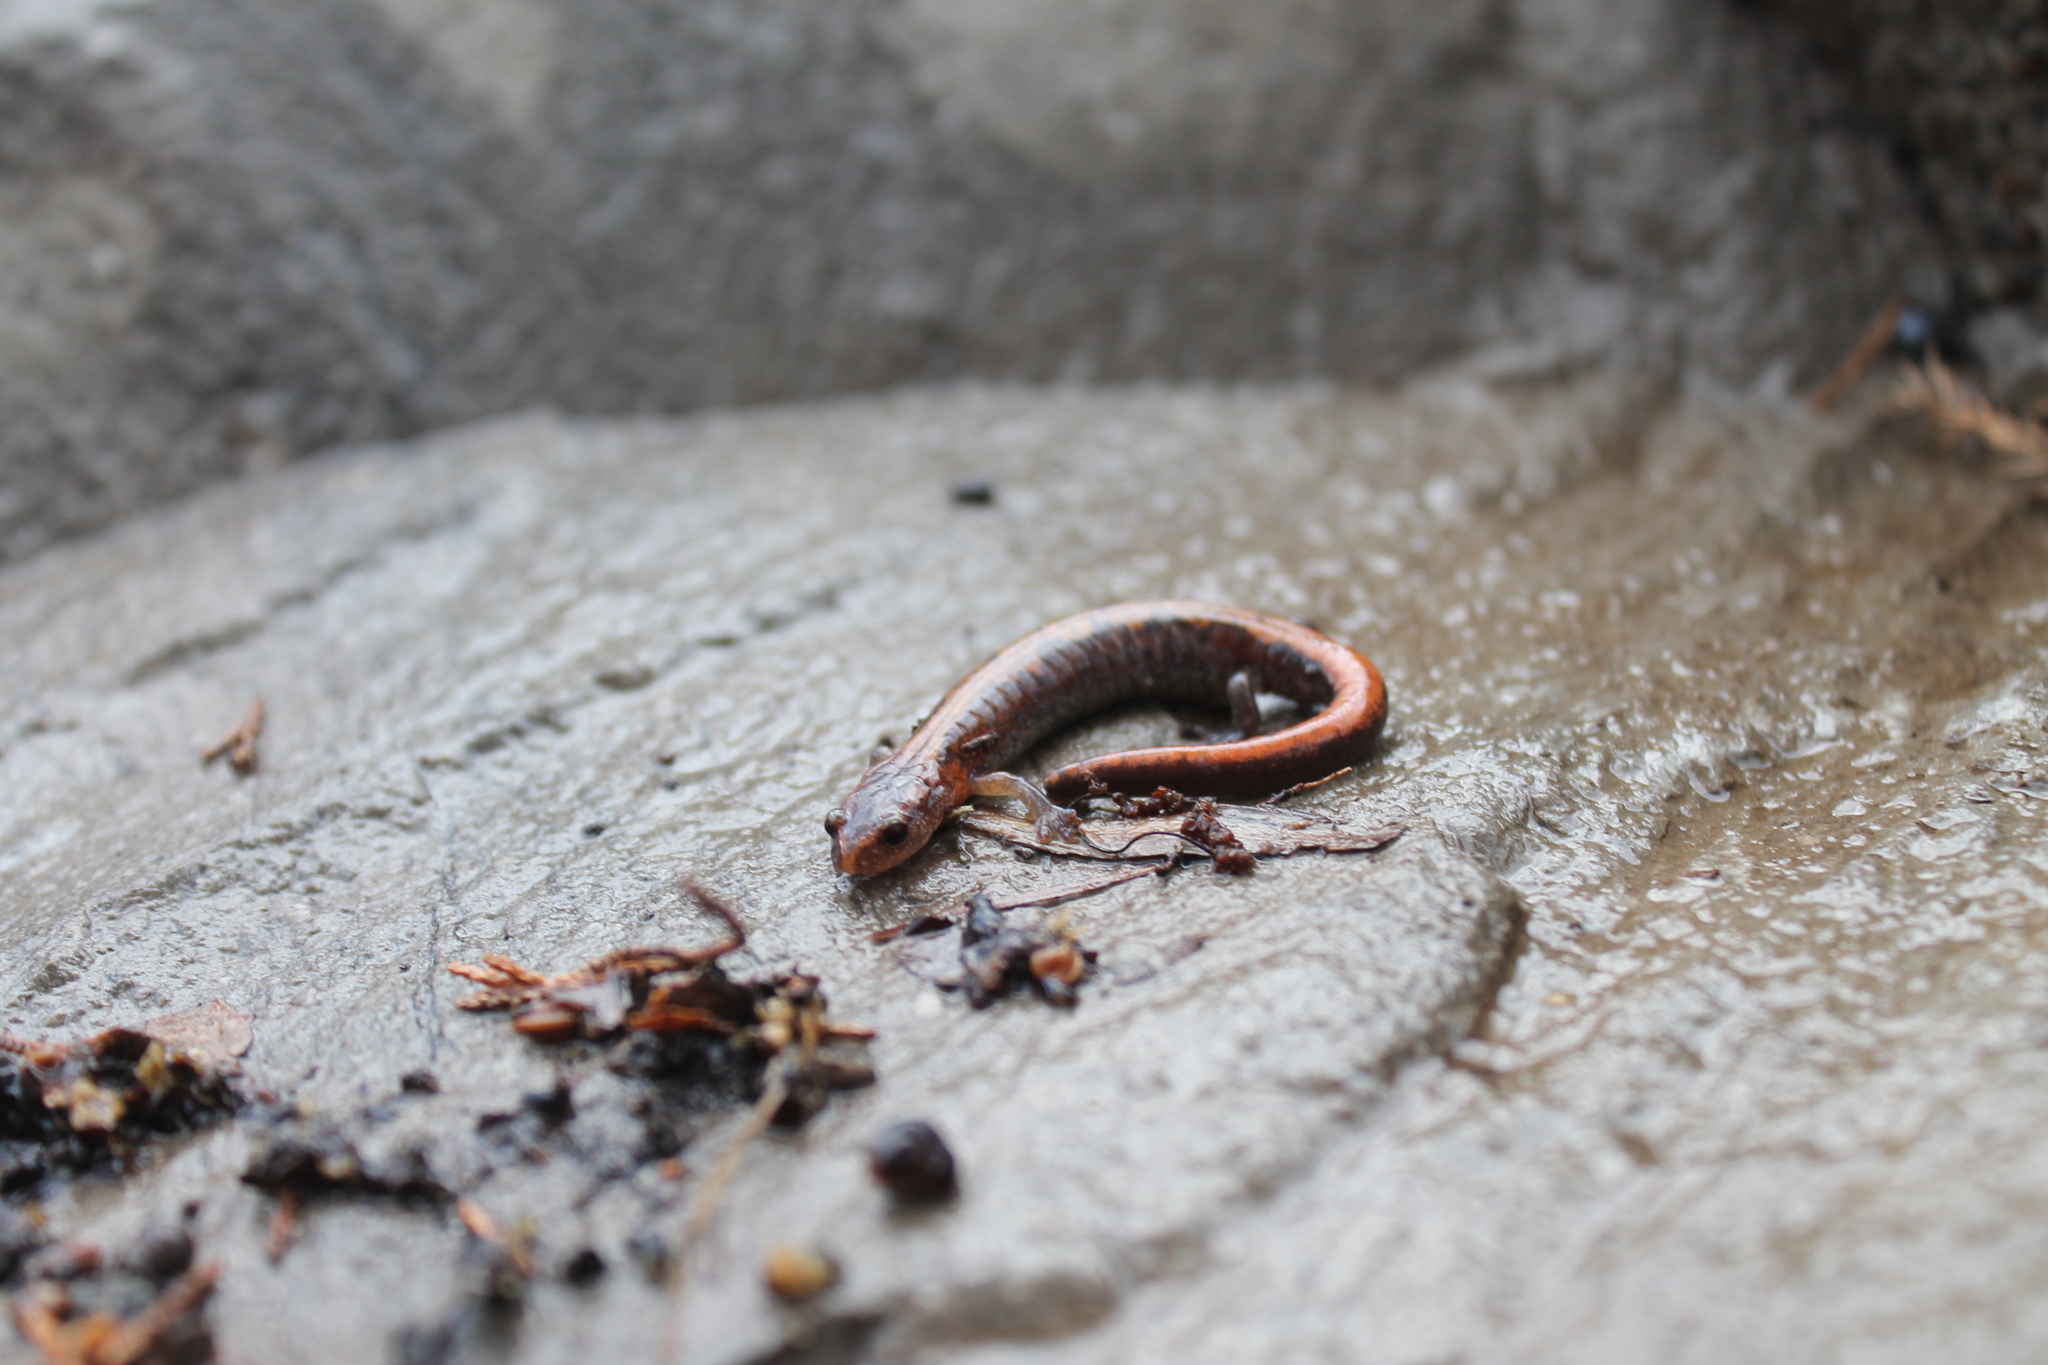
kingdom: Animalia
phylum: Chordata
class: Amphibia
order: Caudata
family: Plethodontidae
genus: Plethodon
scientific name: Plethodon dorsalis
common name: Northern zigzag salamander
